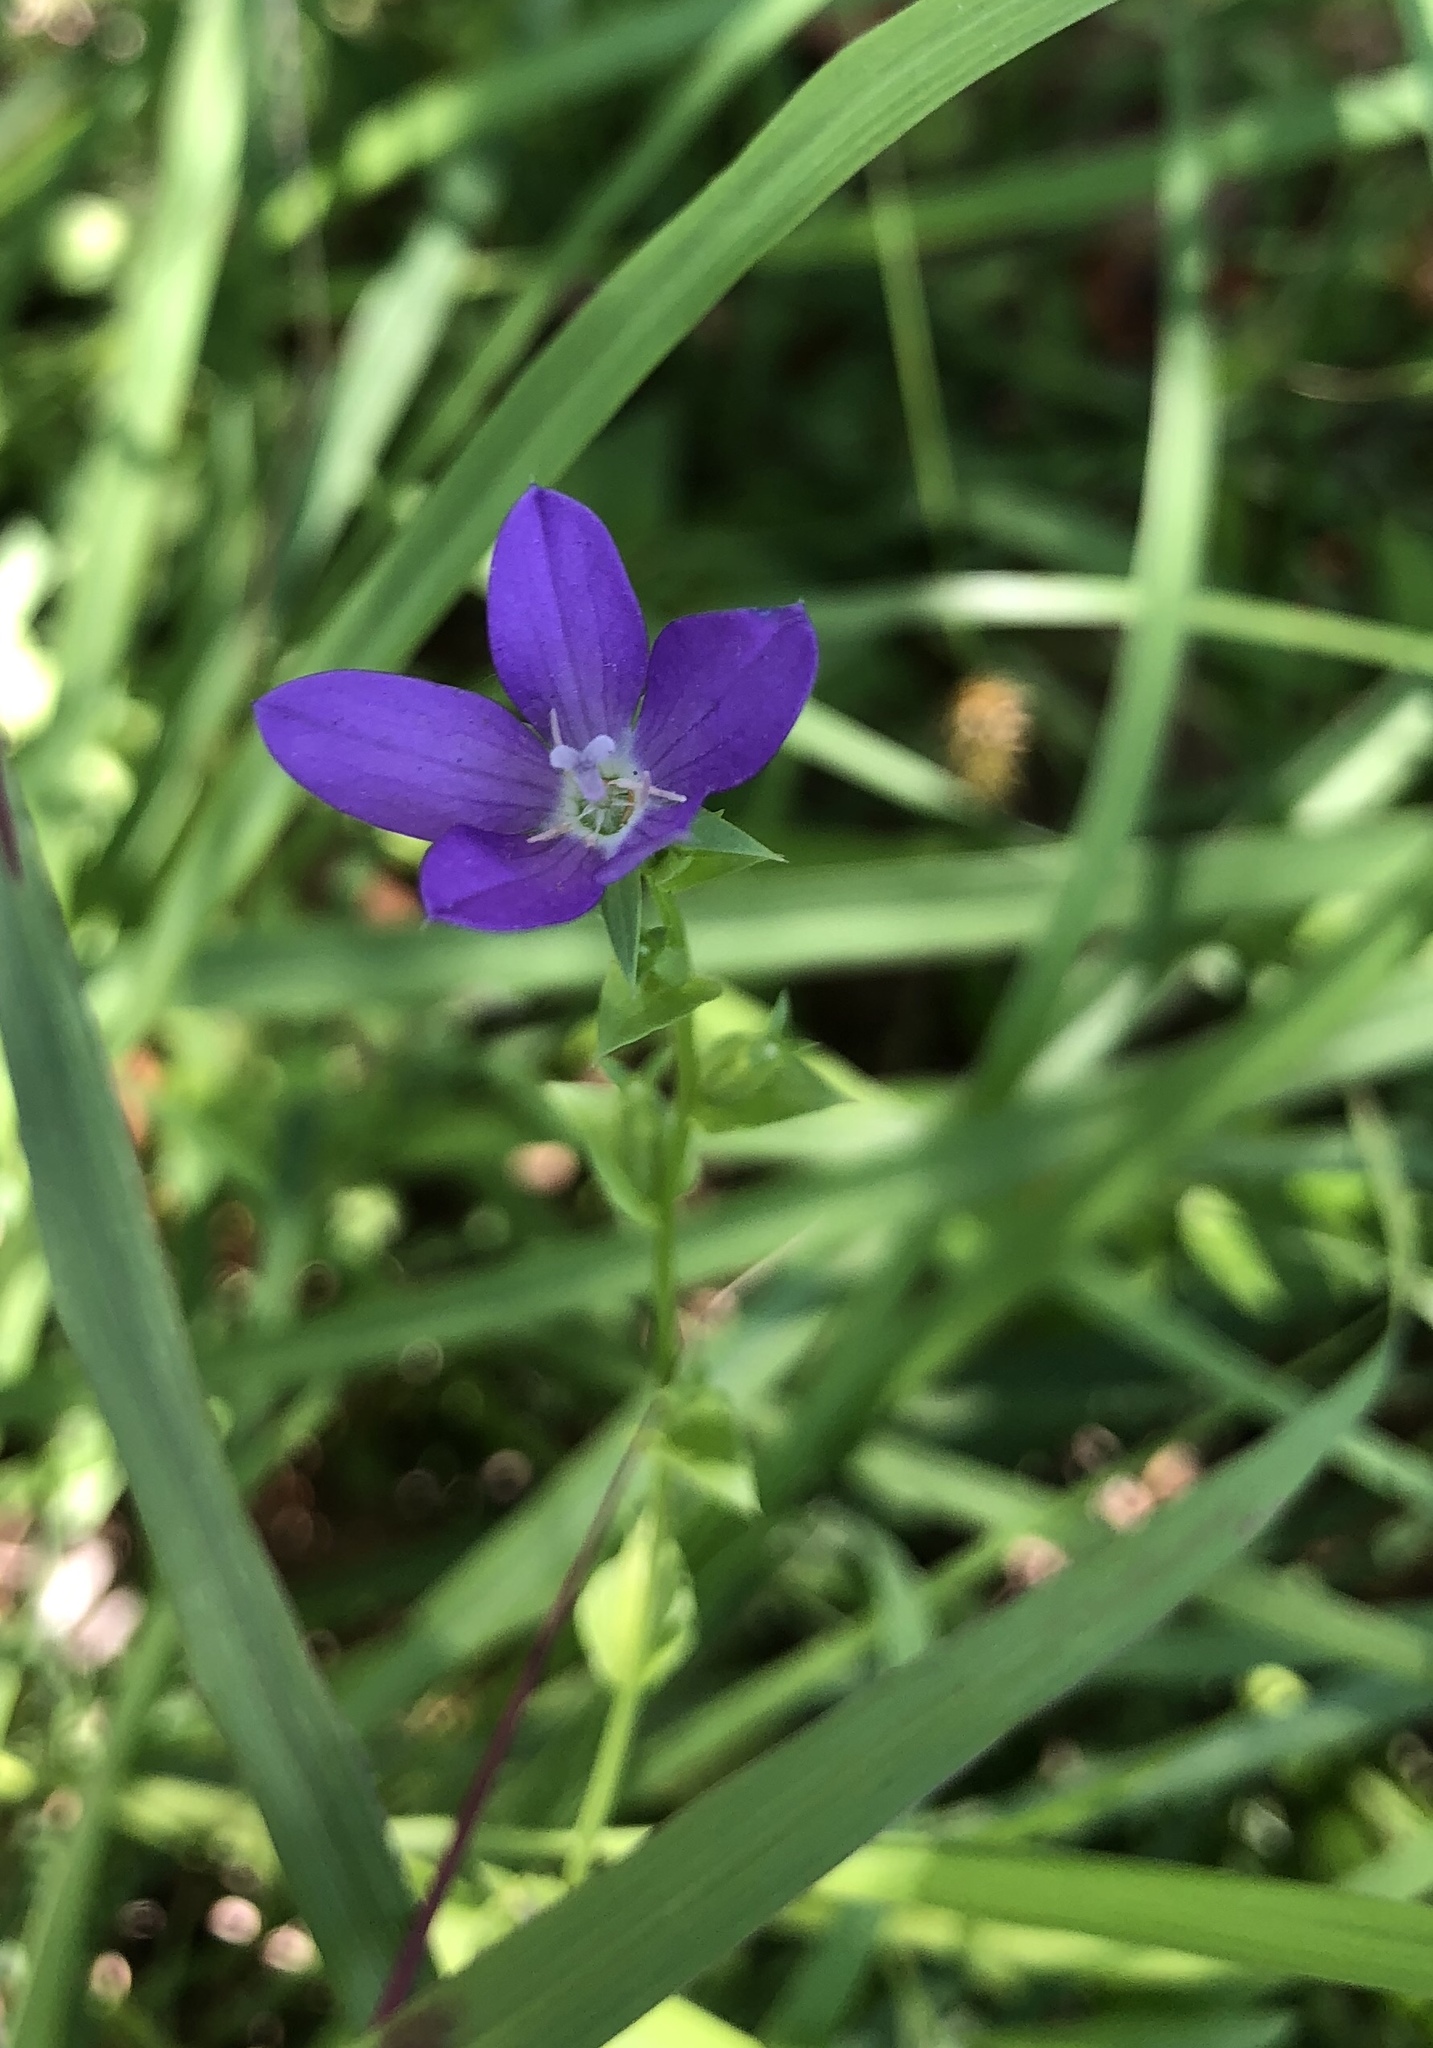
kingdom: Plantae
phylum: Tracheophyta
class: Magnoliopsida
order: Asterales
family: Campanulaceae
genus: Triodanis
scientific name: Triodanis perfoliata
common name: Clasping venus' looking-glass
